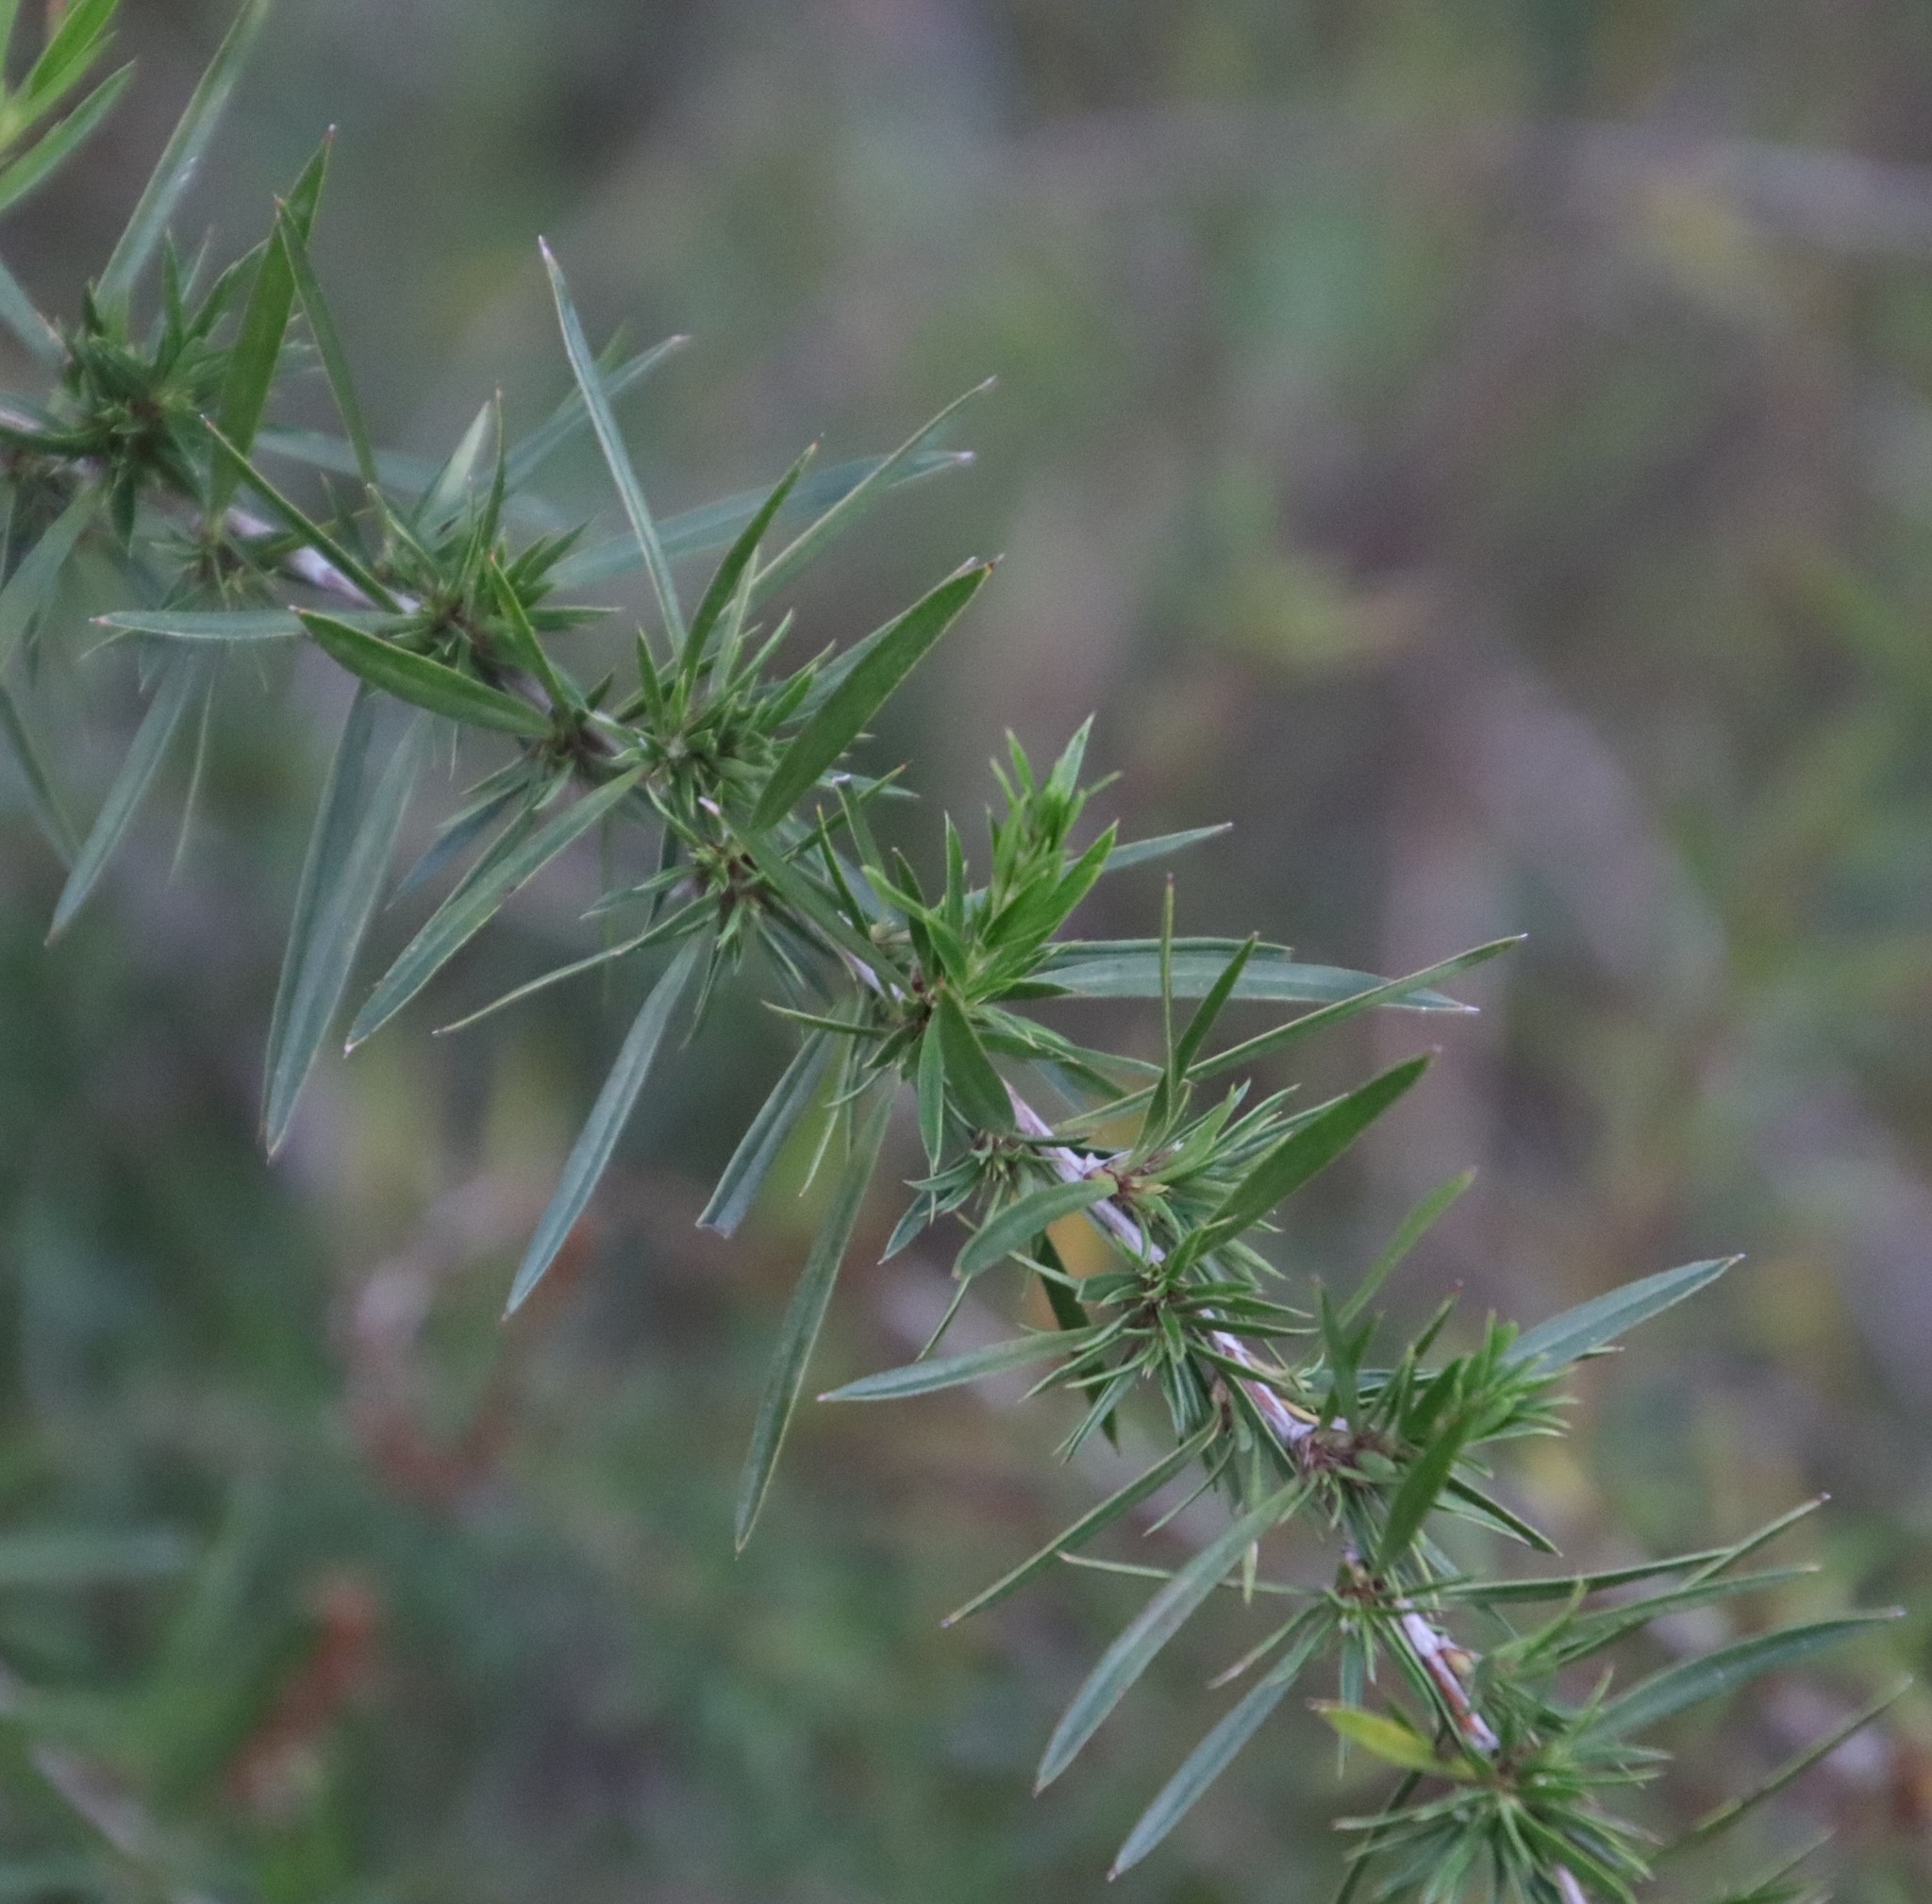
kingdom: Plantae
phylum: Tracheophyta
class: Magnoliopsida
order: Rosales
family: Rosaceae
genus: Cliffortia
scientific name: Cliffortia strobilifera
